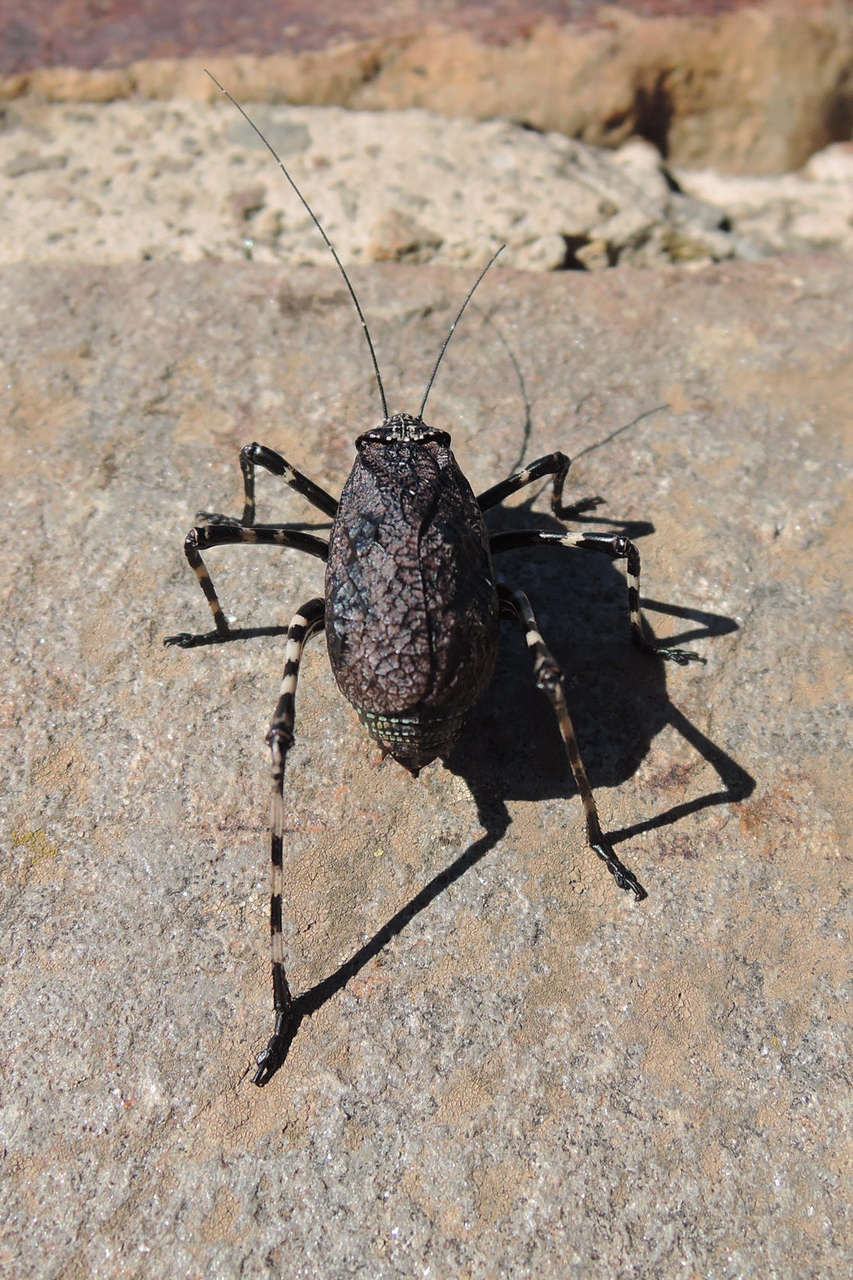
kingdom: Animalia
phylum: Arthropoda
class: Insecta
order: Orthoptera
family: Tettigoniidae
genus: Acripeza
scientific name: Acripeza reticulata
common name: Mountain katydid
